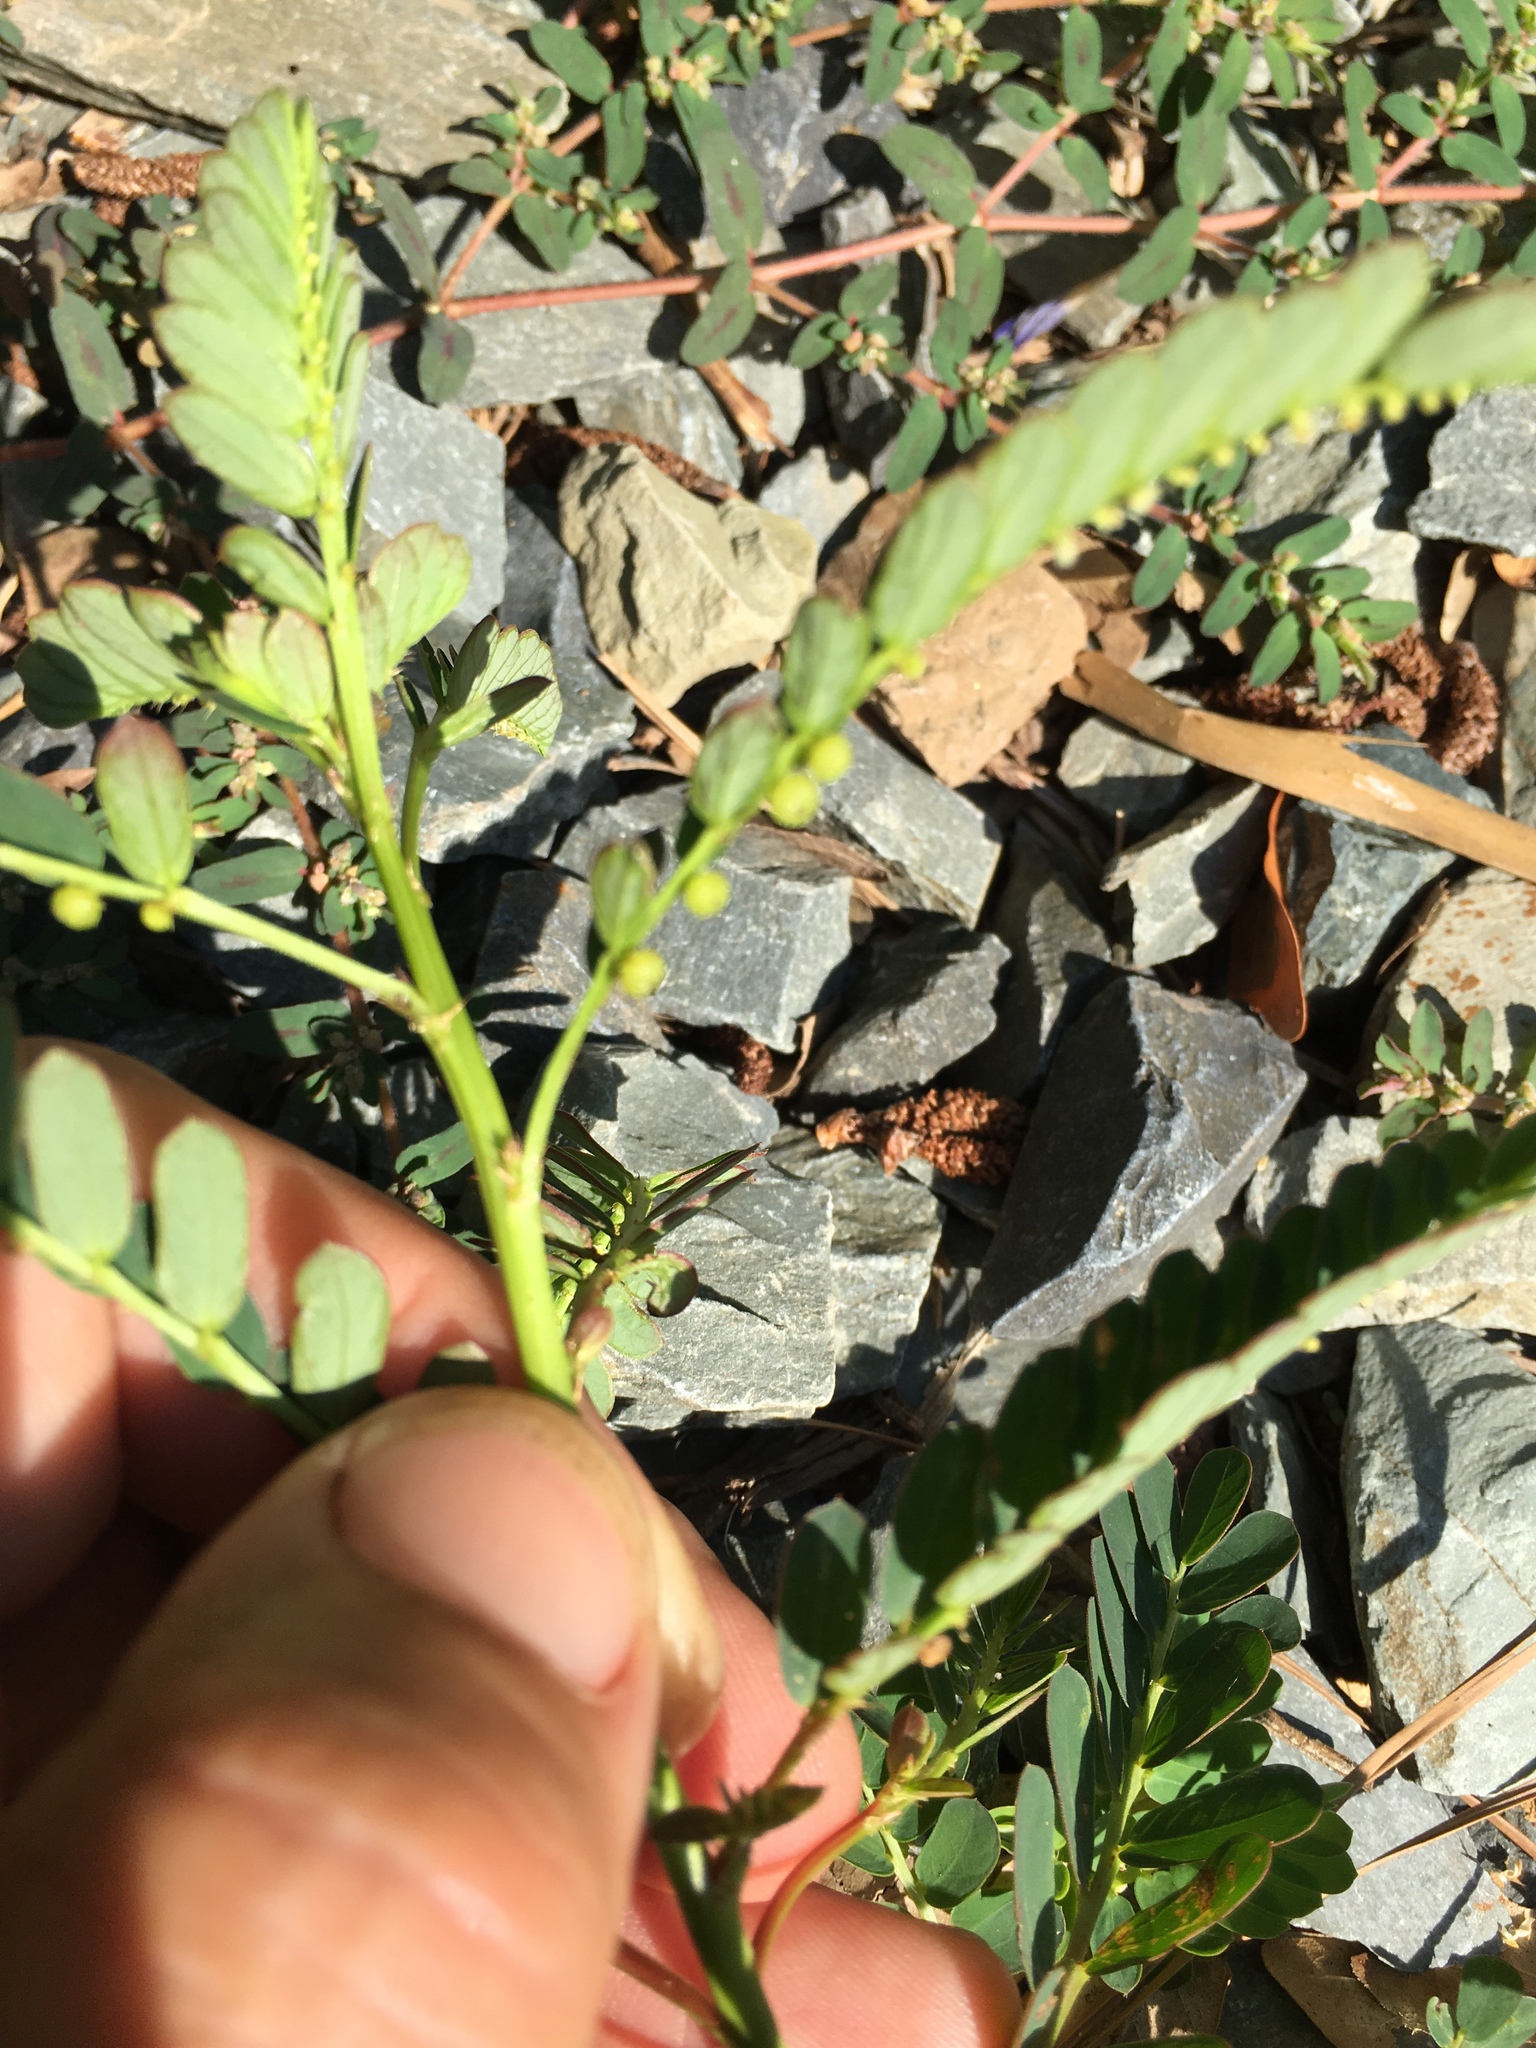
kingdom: Plantae
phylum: Tracheophyta
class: Magnoliopsida
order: Malpighiales
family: Phyllanthaceae
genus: Phyllanthus
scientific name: Phyllanthus urinaria
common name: Chamber bitter
